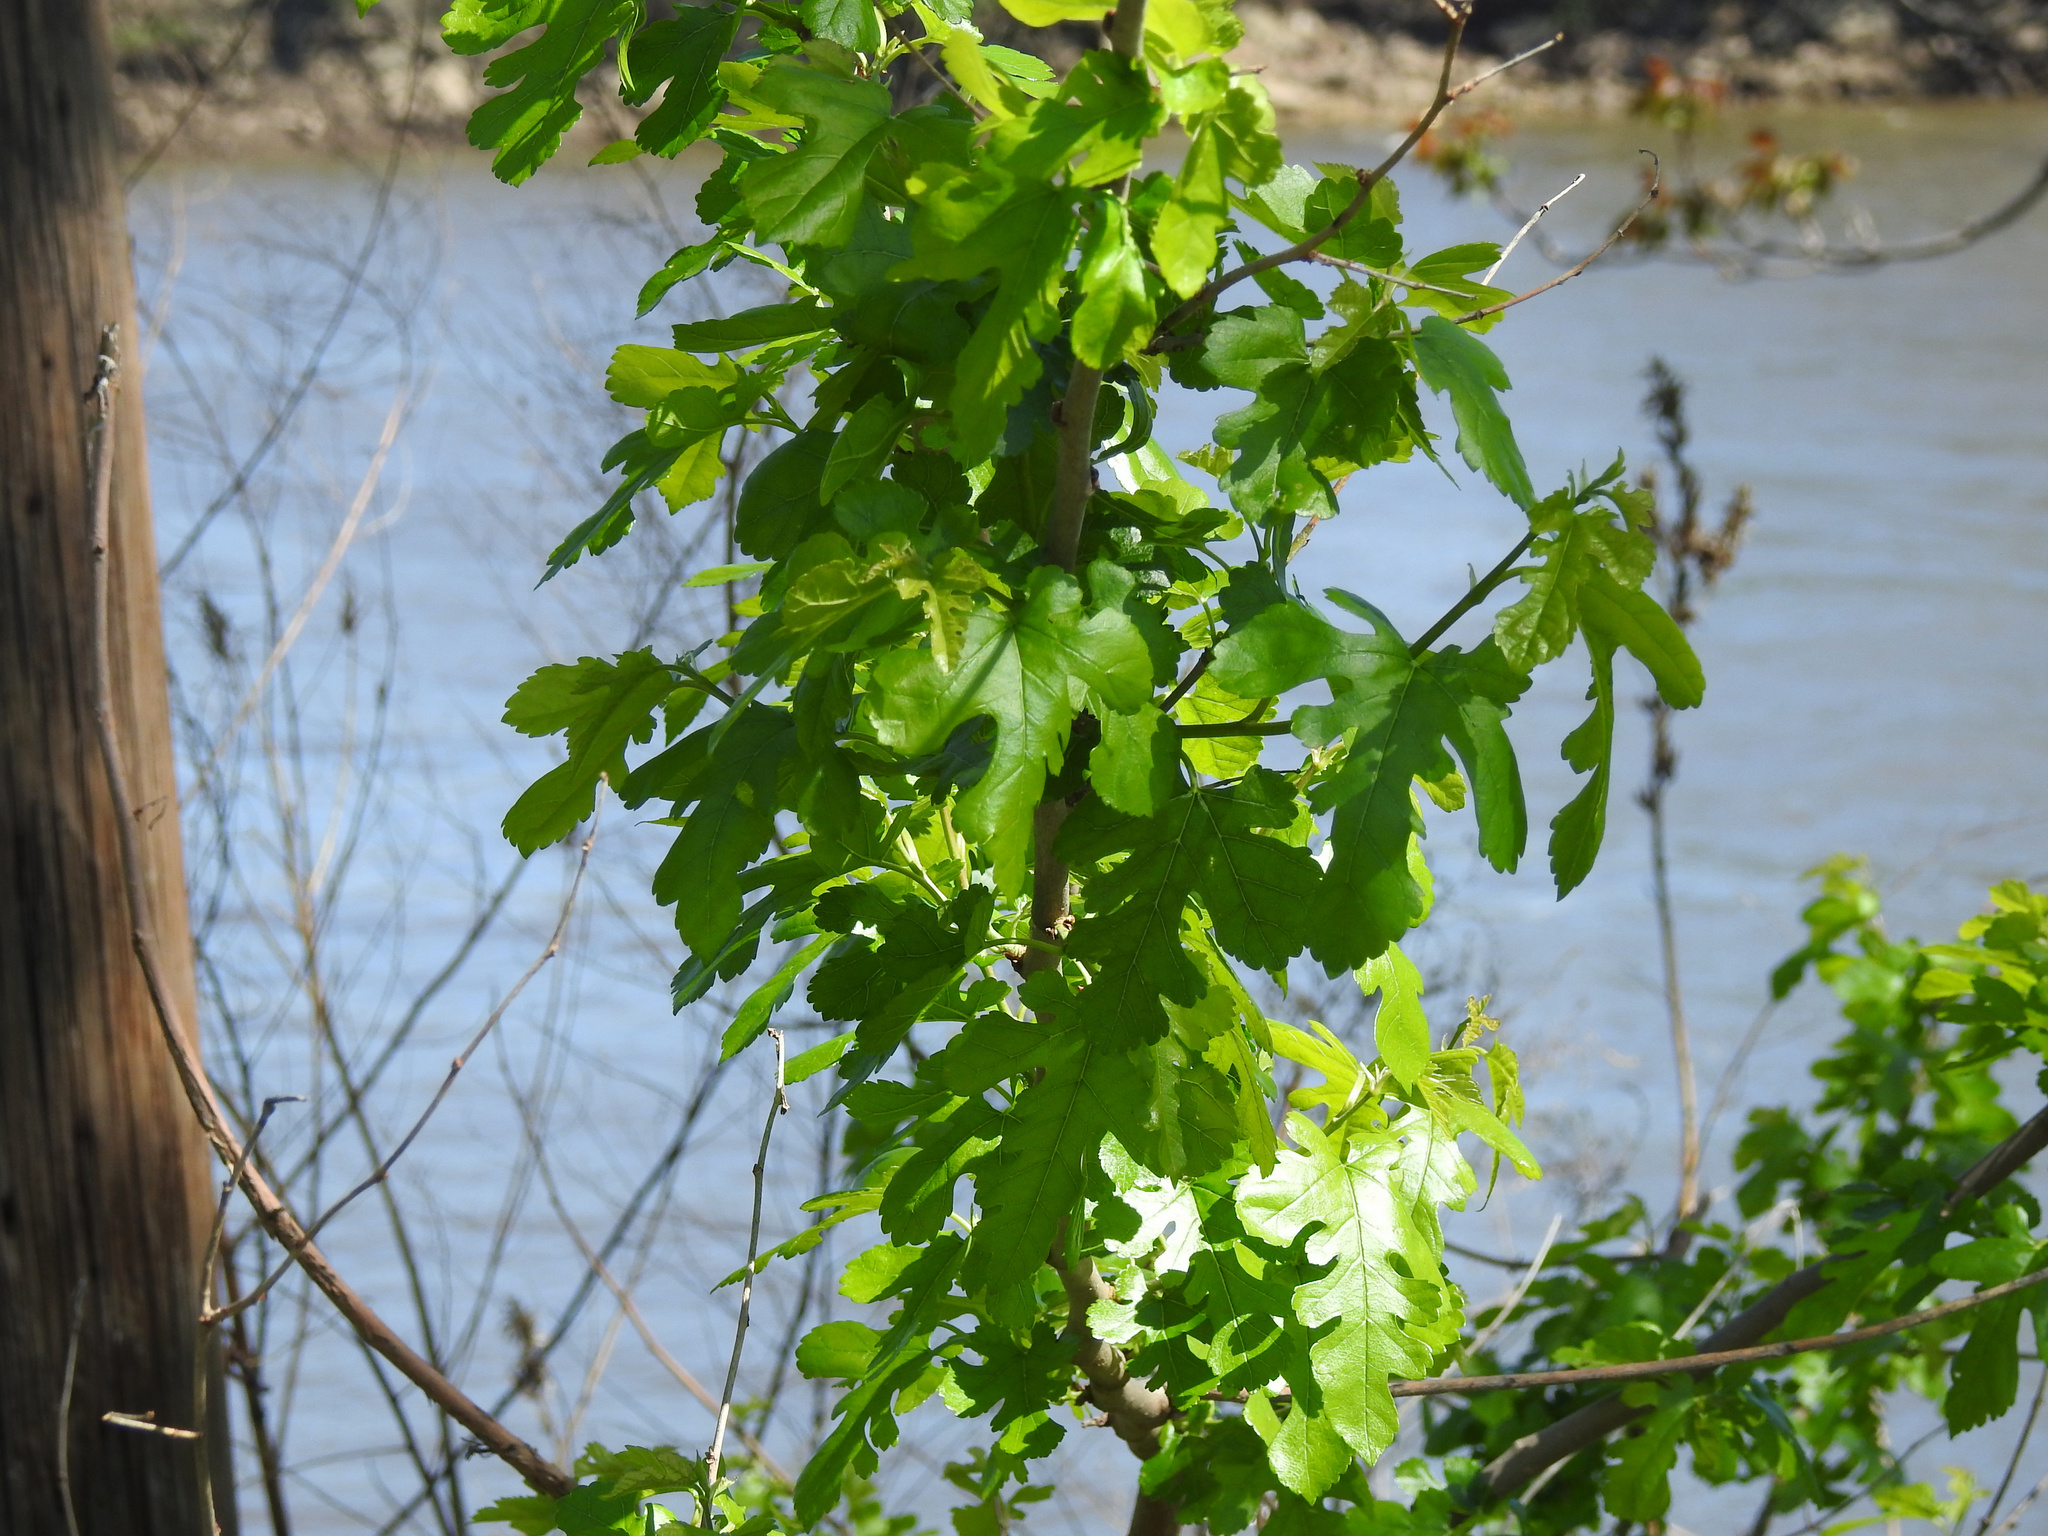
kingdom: Plantae
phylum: Tracheophyta
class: Magnoliopsida
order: Rosales
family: Moraceae
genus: Morus
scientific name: Morus alba
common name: White mulberry
